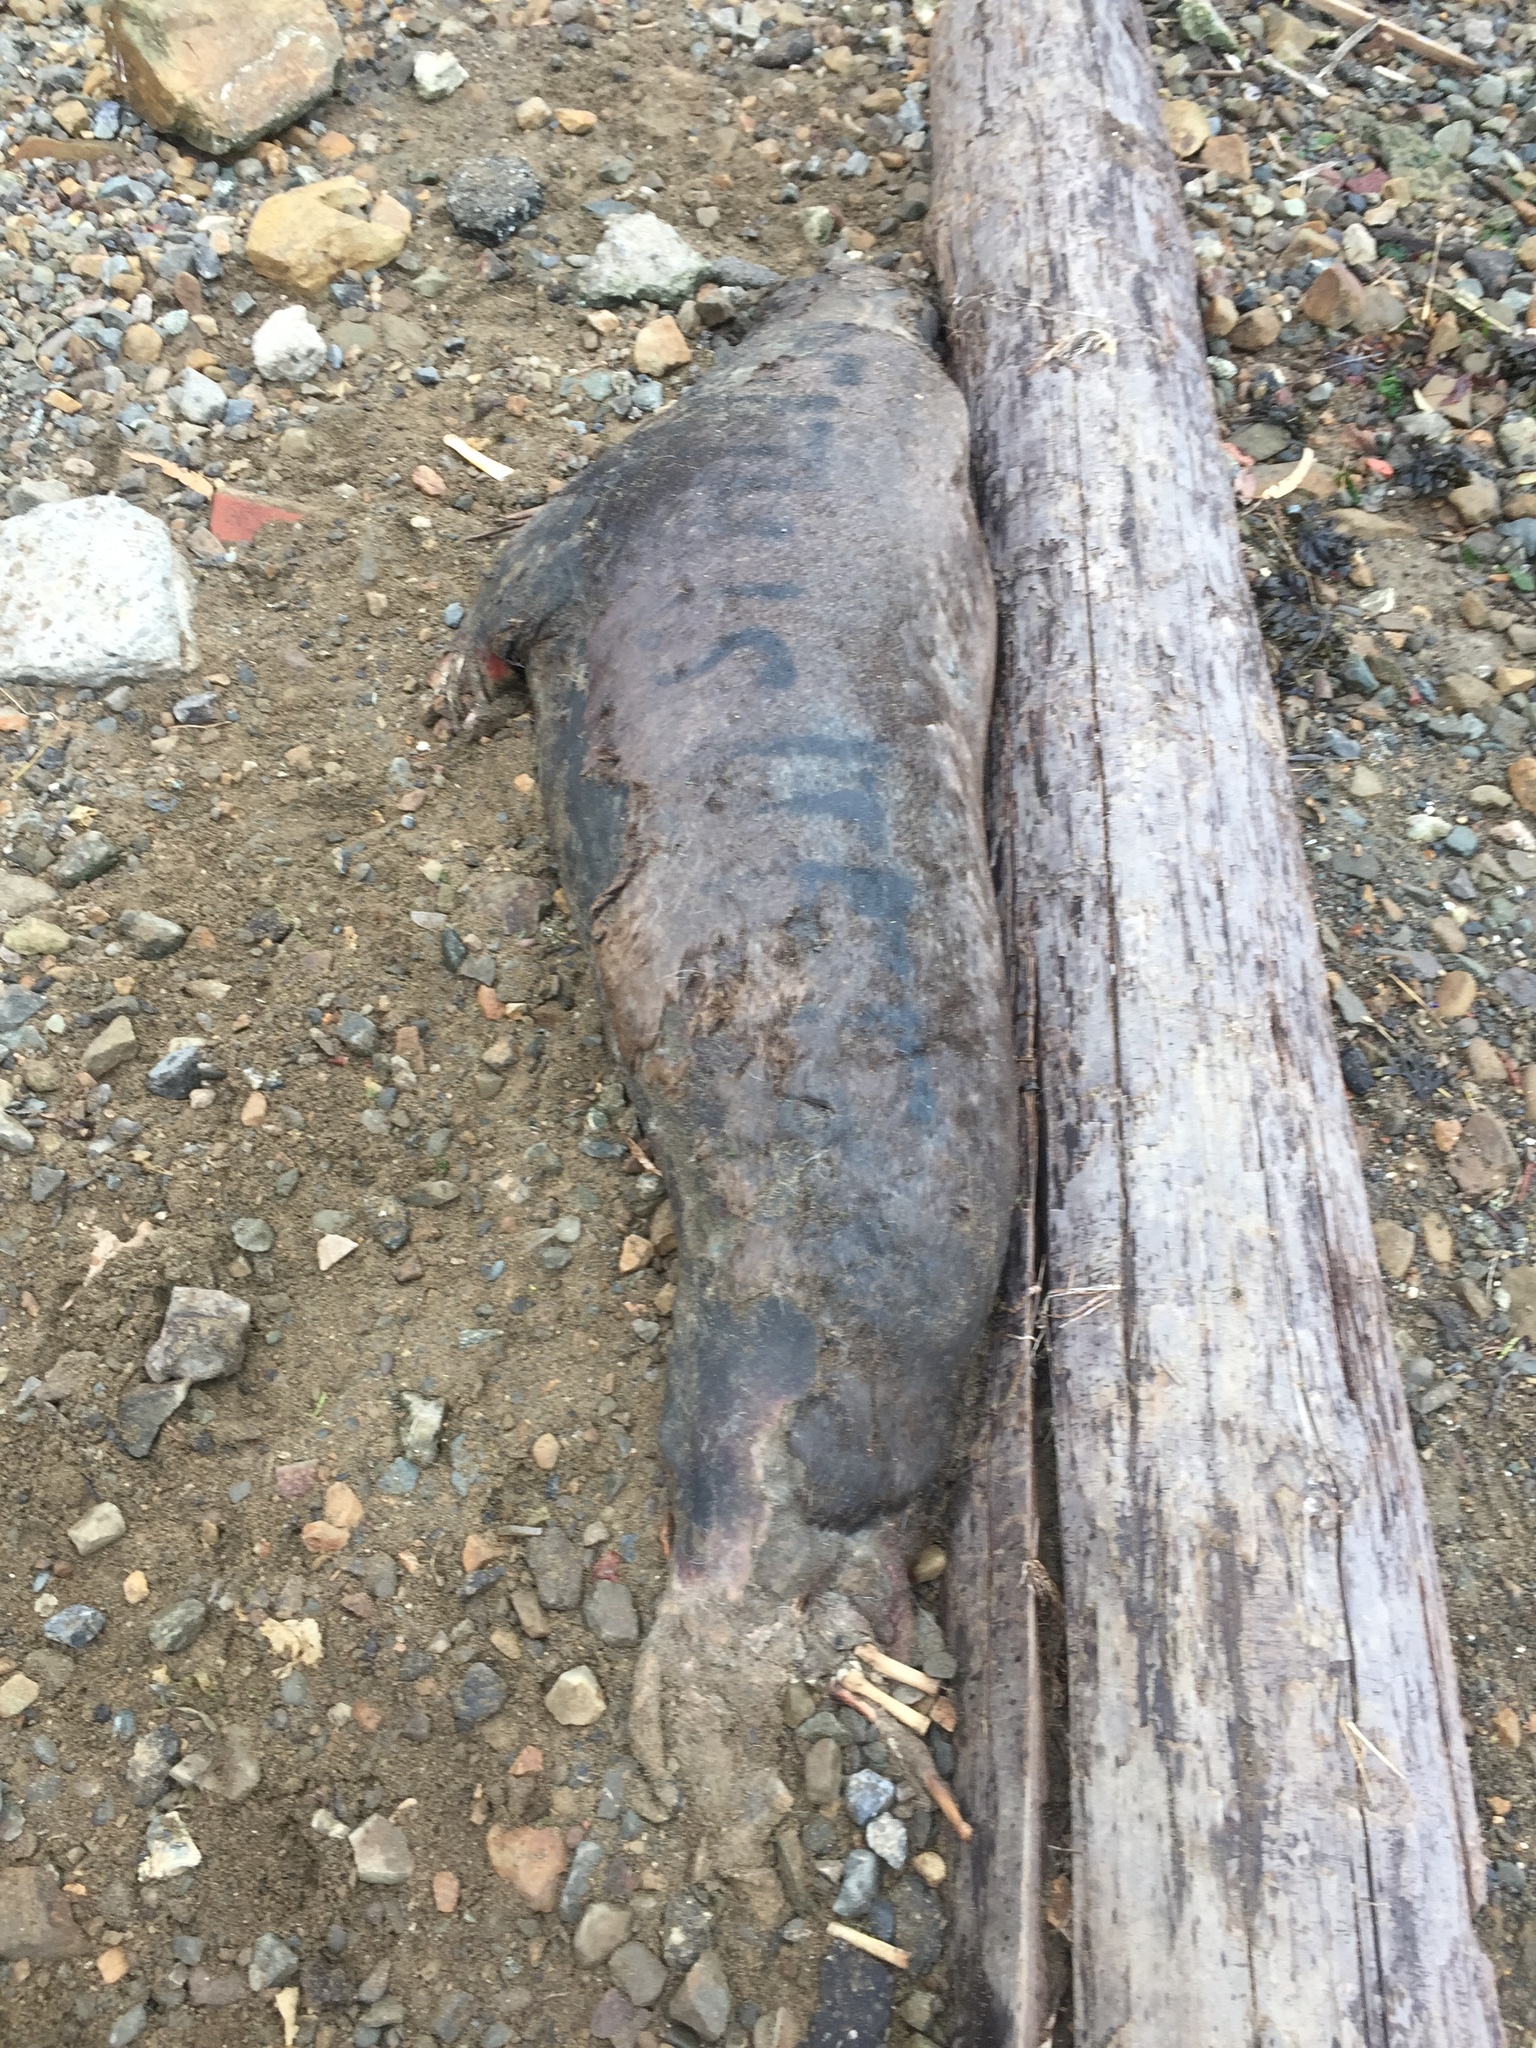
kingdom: Animalia
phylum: Chordata
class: Mammalia
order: Carnivora
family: Otariidae
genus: Zalophus
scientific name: Zalophus californianus
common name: California sea lion
